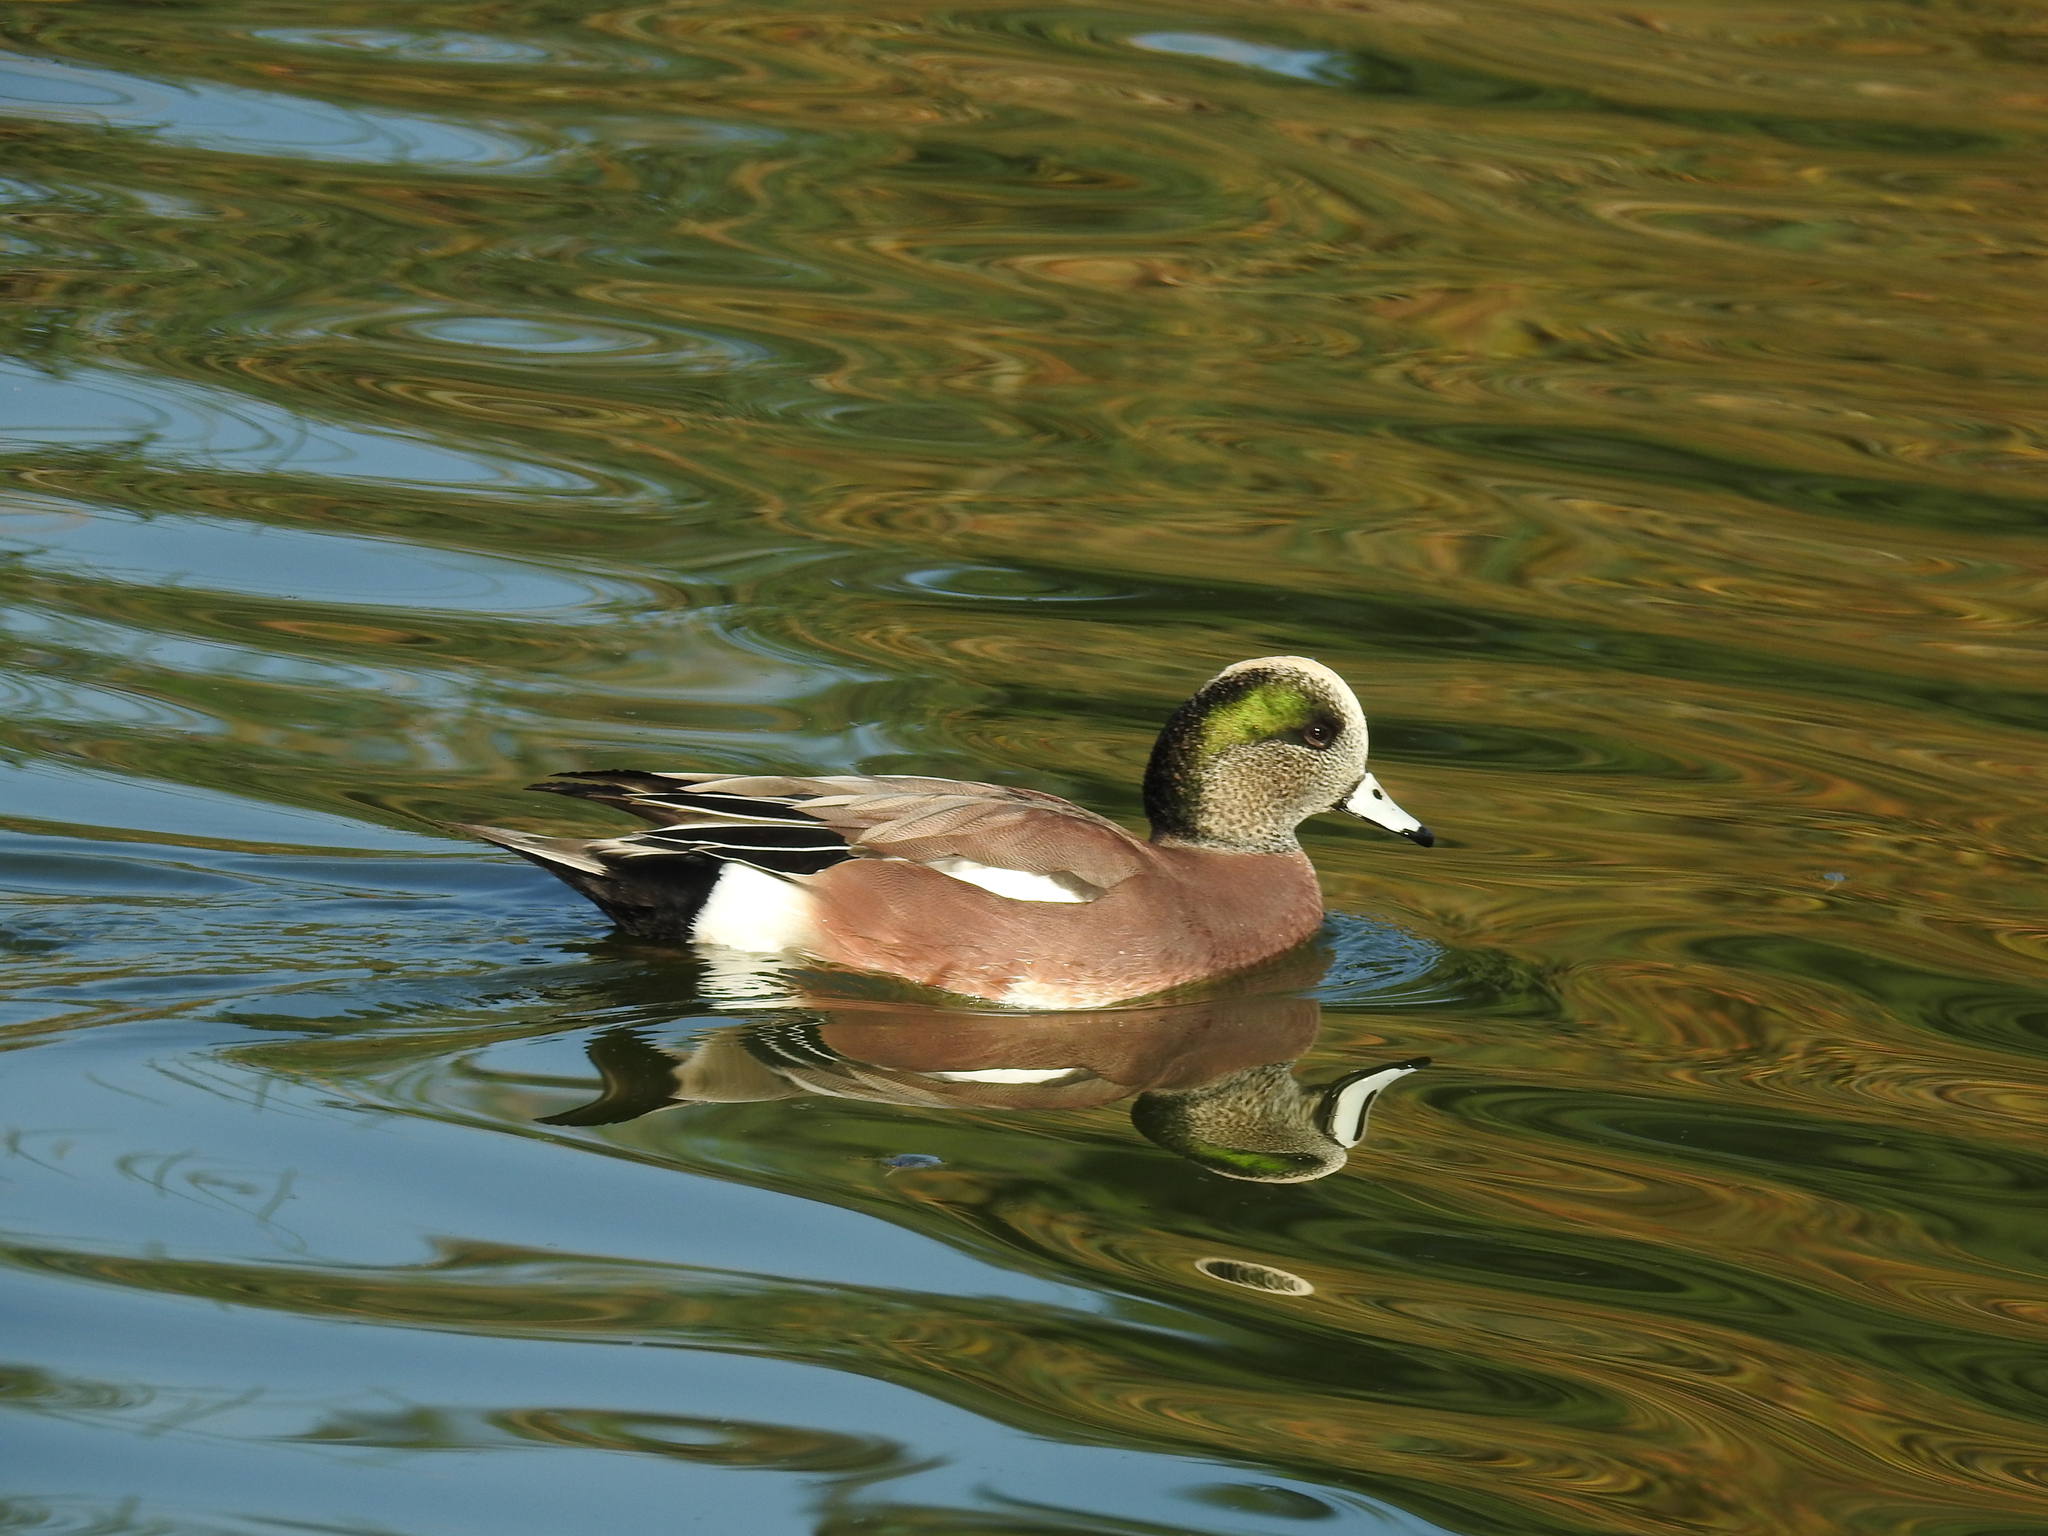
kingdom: Animalia
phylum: Chordata
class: Aves
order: Anseriformes
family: Anatidae
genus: Mareca
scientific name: Mareca americana
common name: American wigeon
